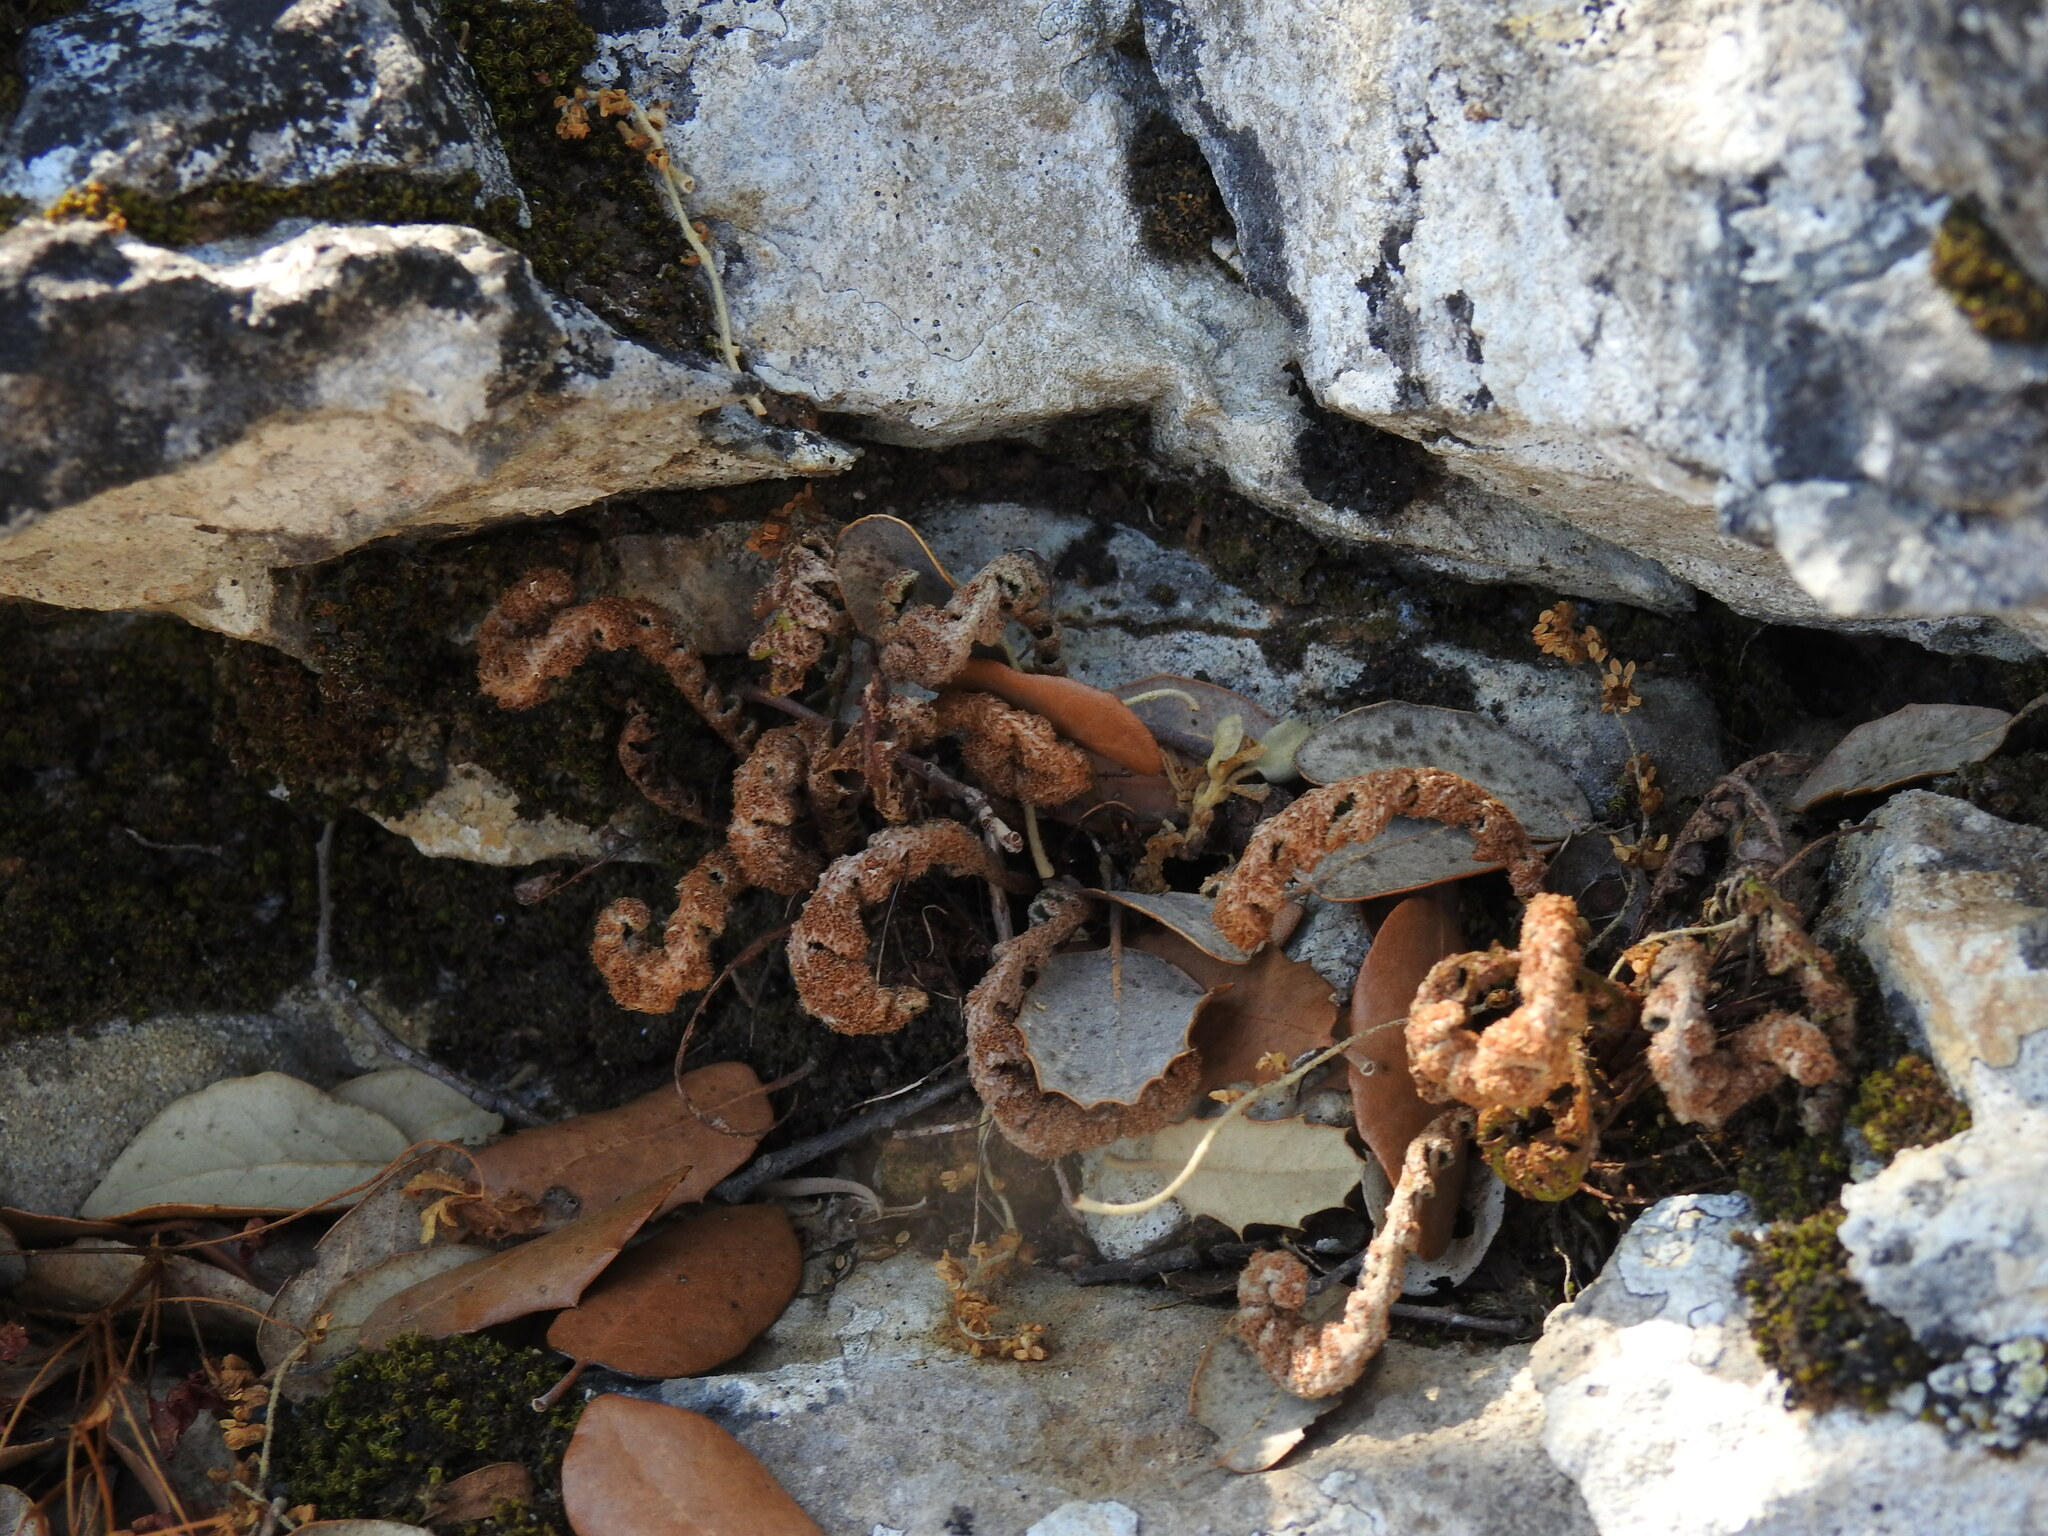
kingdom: Plantae
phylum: Tracheophyta
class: Polypodiopsida
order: Polypodiales
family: Aspleniaceae
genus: Asplenium
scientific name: Asplenium ceterach
